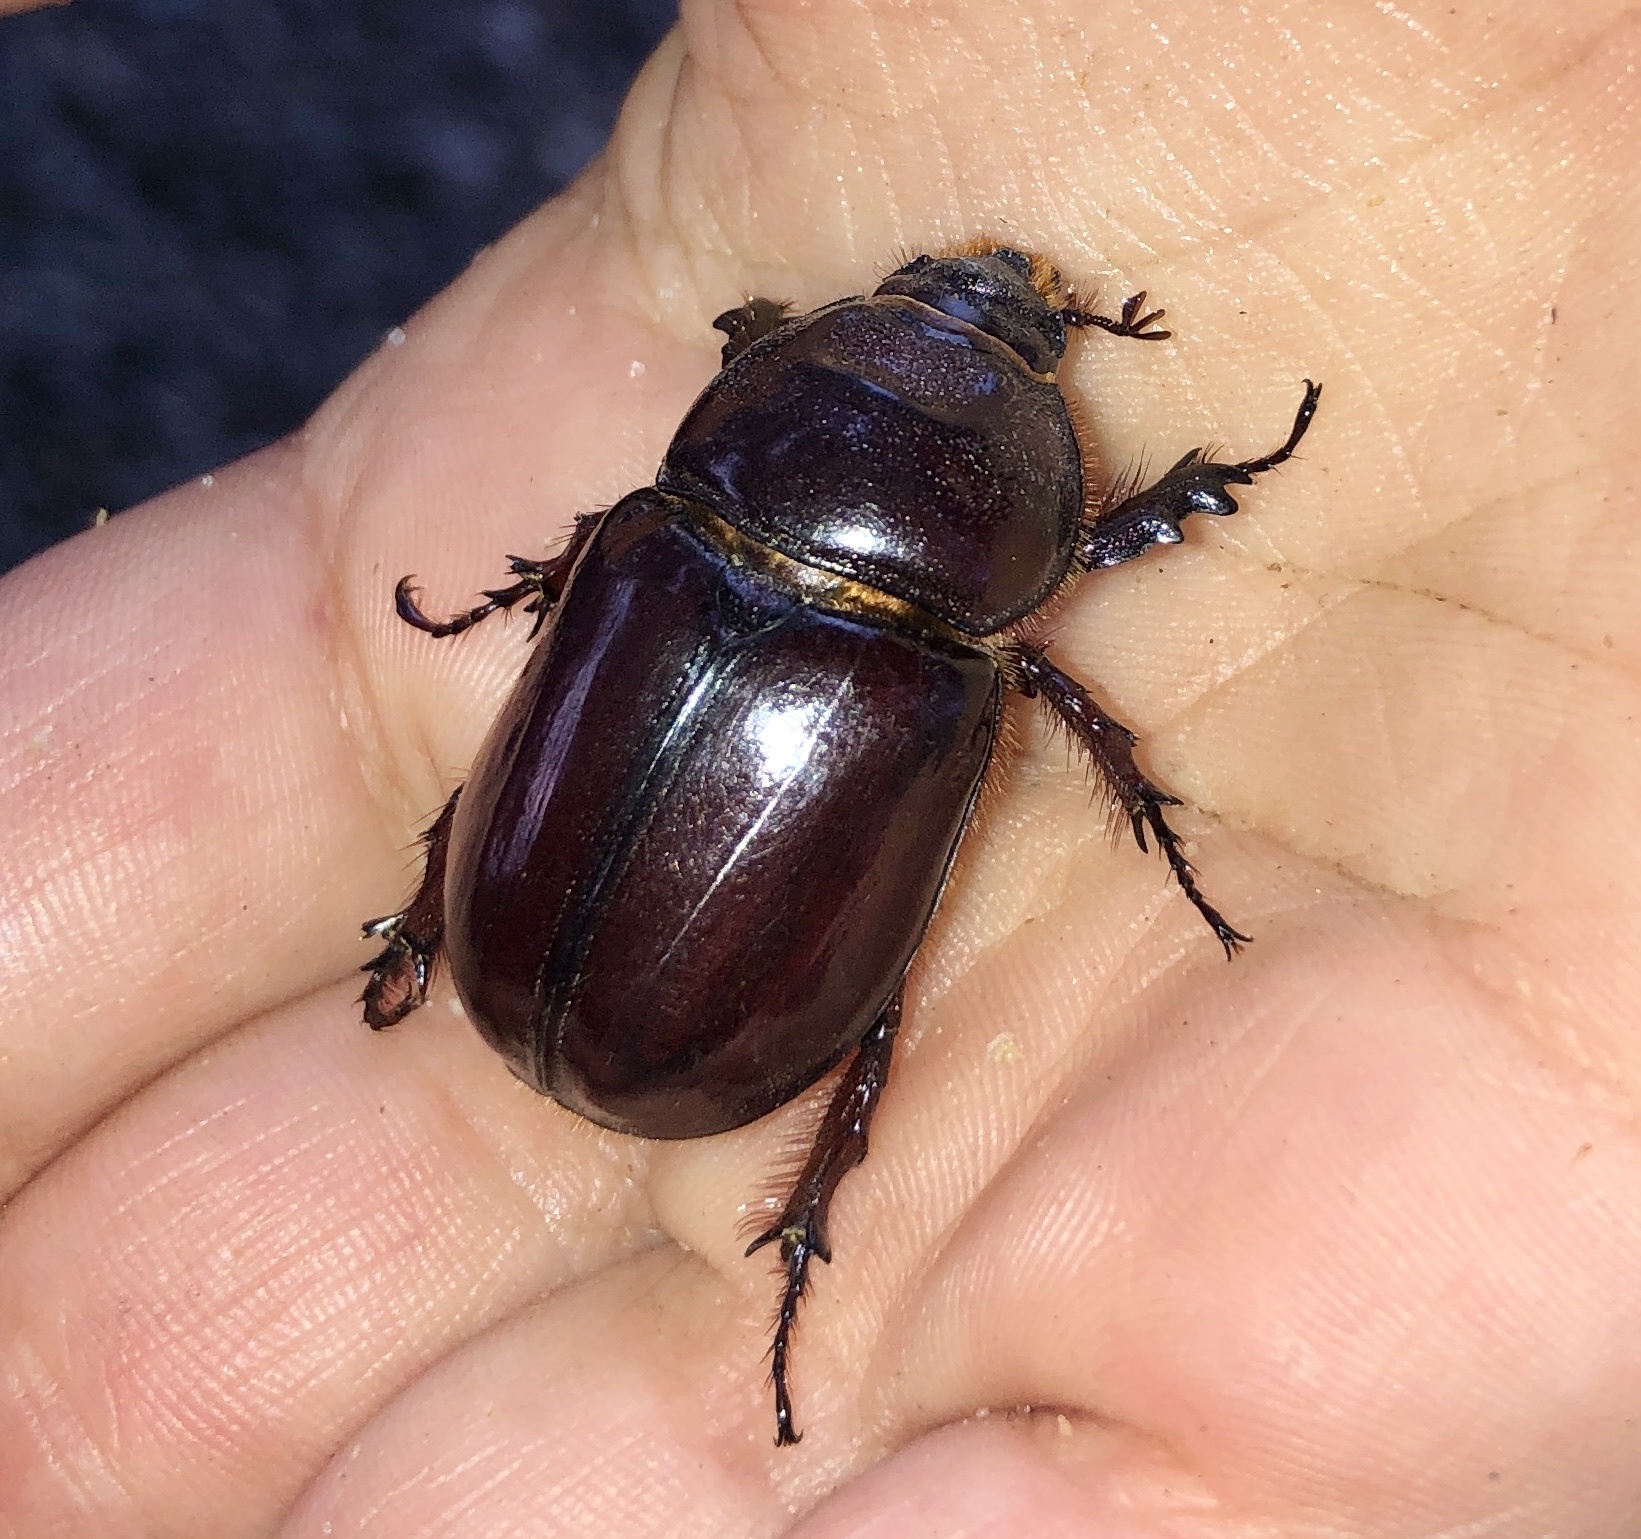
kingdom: Animalia
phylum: Arthropoda
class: Insecta
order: Coleoptera
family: Scarabaeidae
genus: Oryctes
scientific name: Oryctes nasicornis
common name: European rhinoceros beetle
